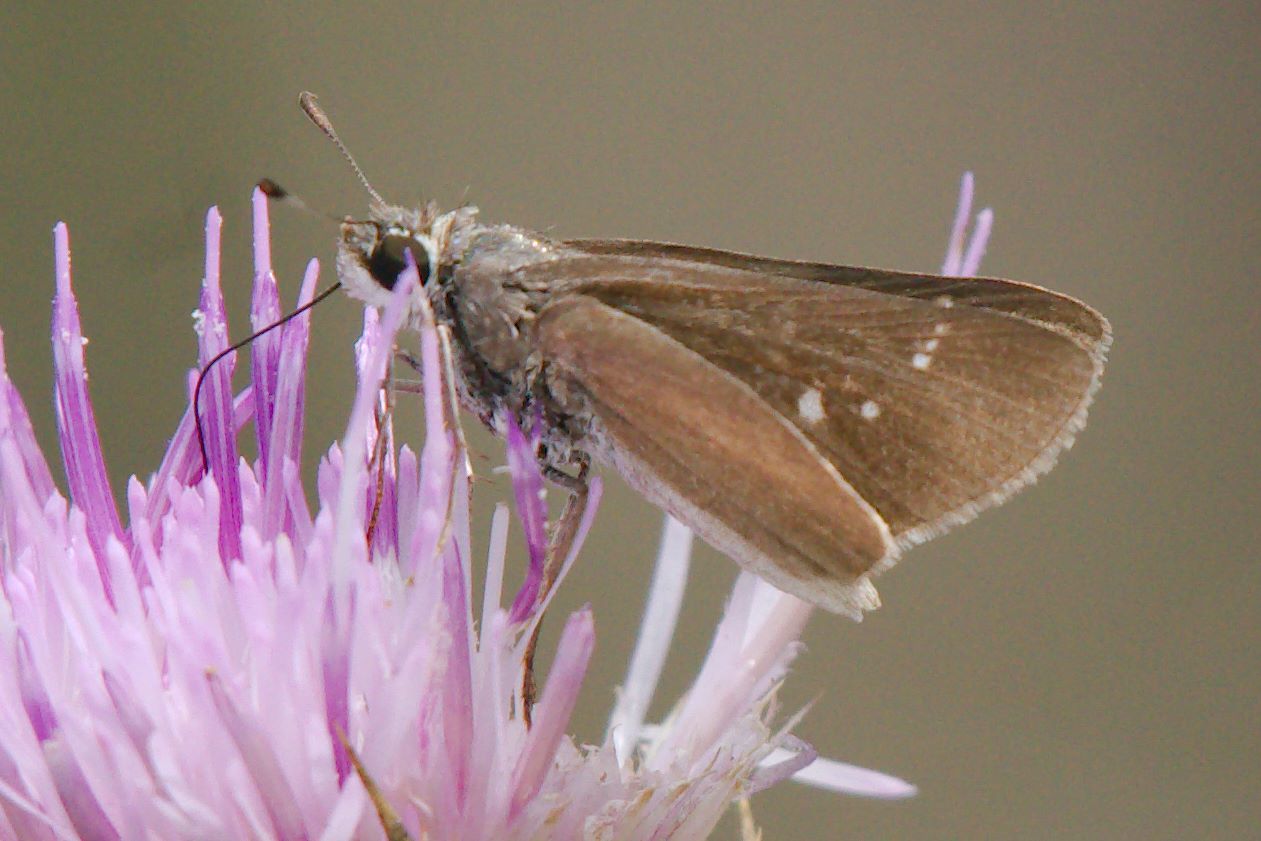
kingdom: Animalia
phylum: Arthropoda
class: Insecta
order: Lepidoptera
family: Hesperiidae
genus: Lerodea
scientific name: Lerodea eufala
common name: Eufala skipper
